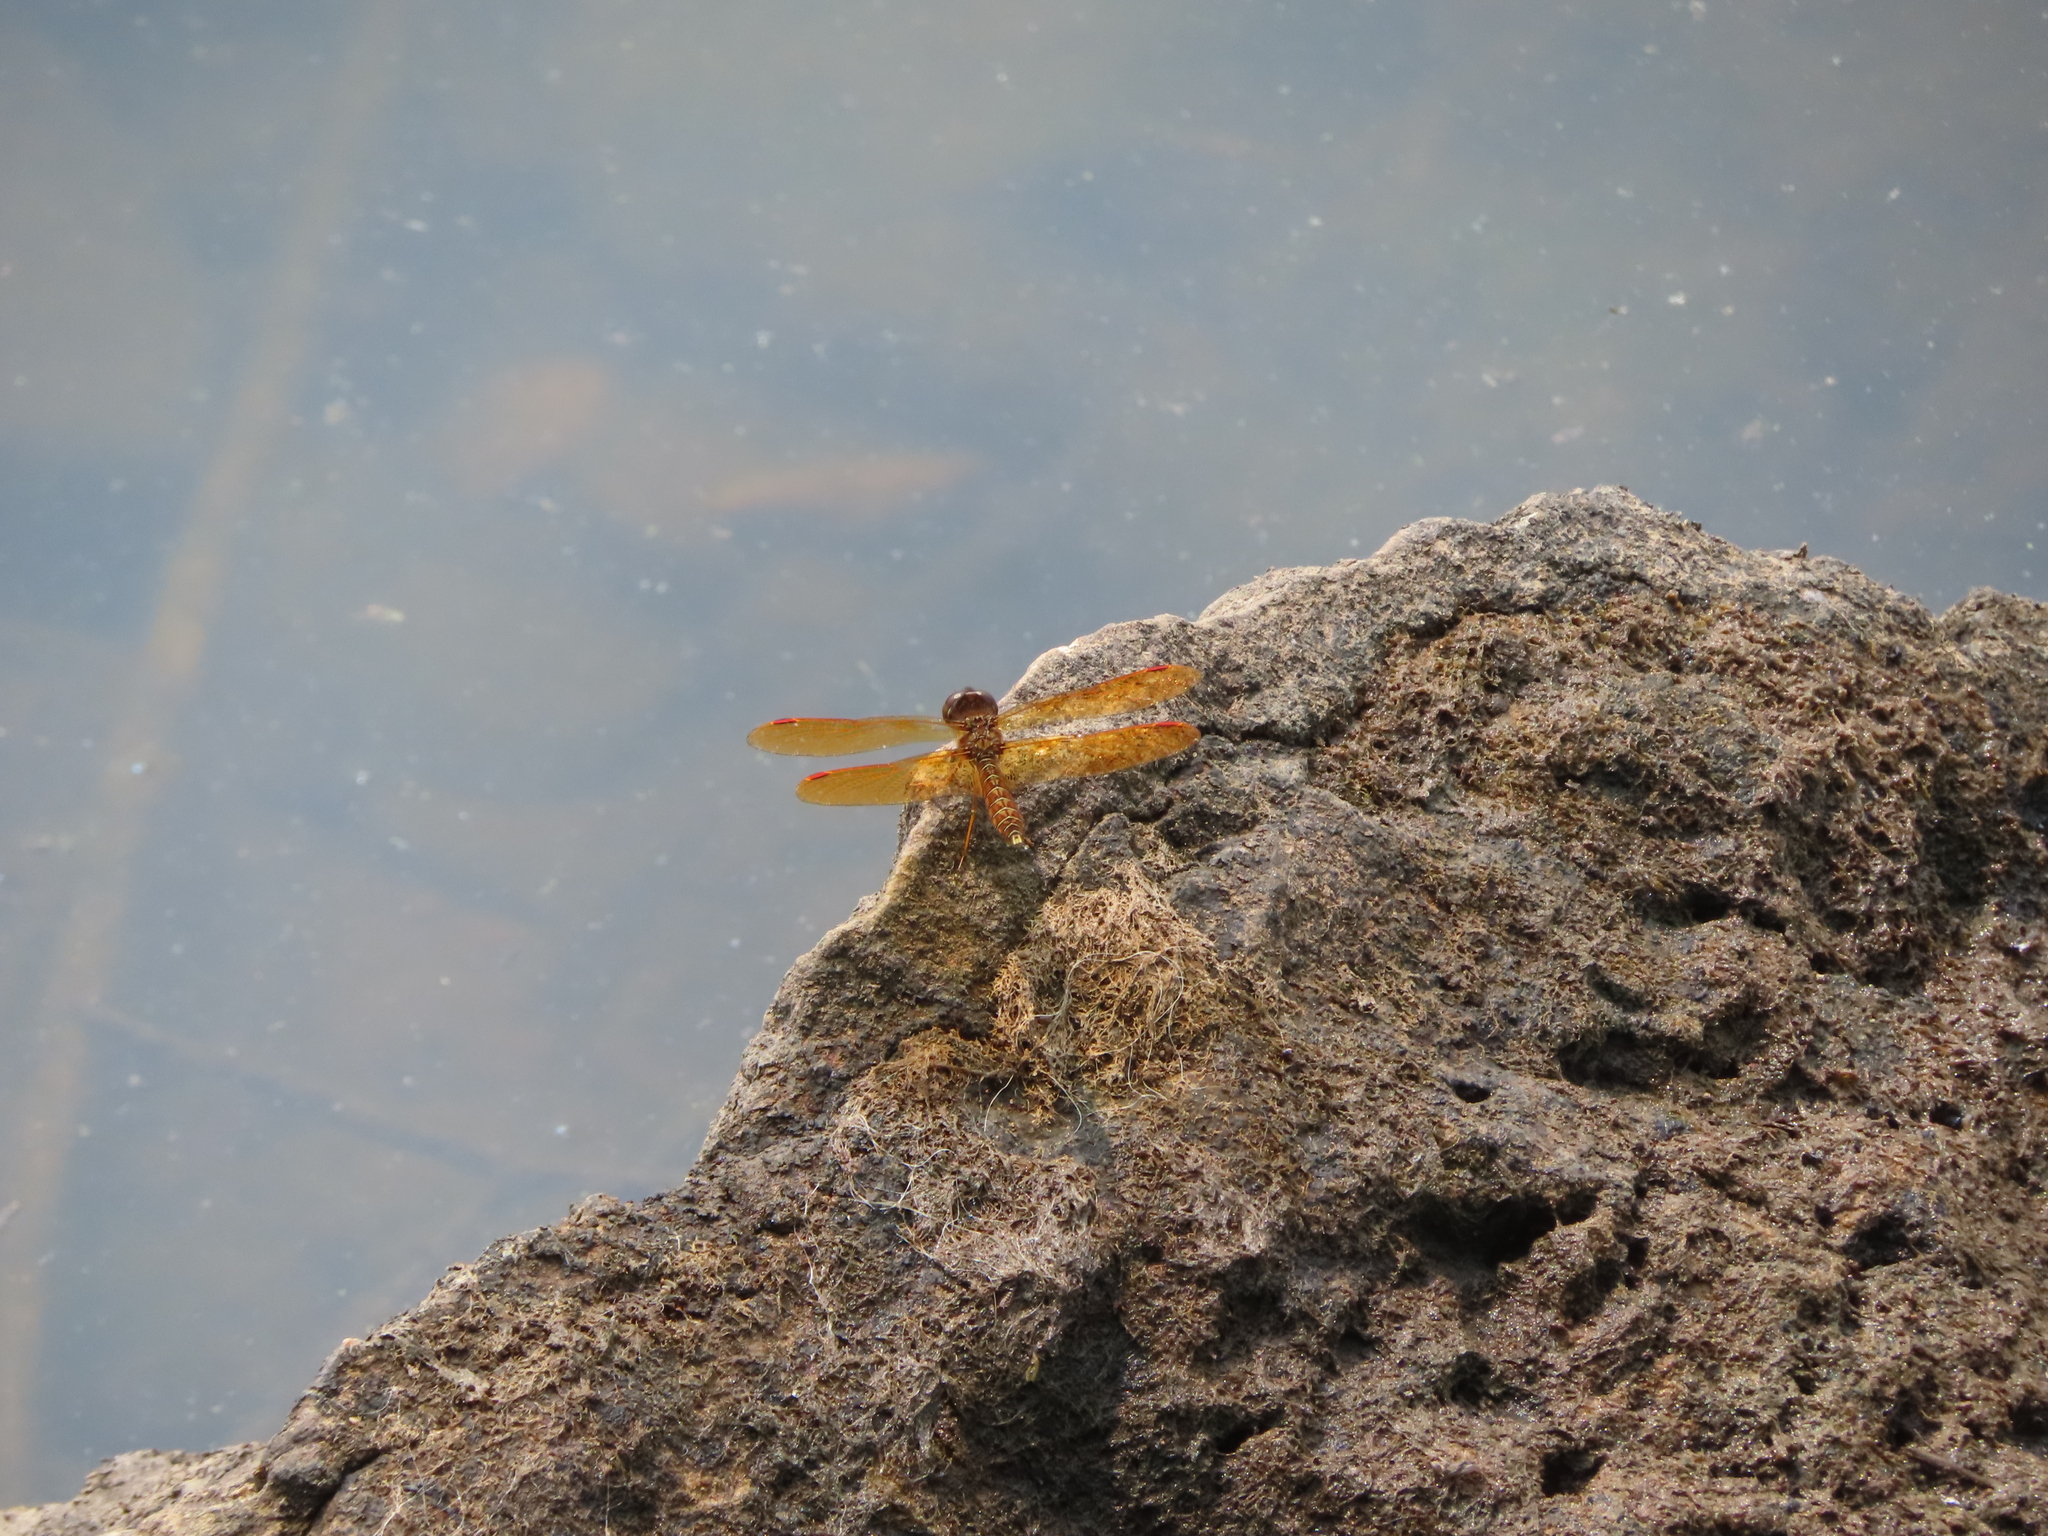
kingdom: Animalia
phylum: Arthropoda
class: Insecta
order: Odonata
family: Libellulidae
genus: Perithemis
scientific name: Perithemis tenera
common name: Eastern amberwing
